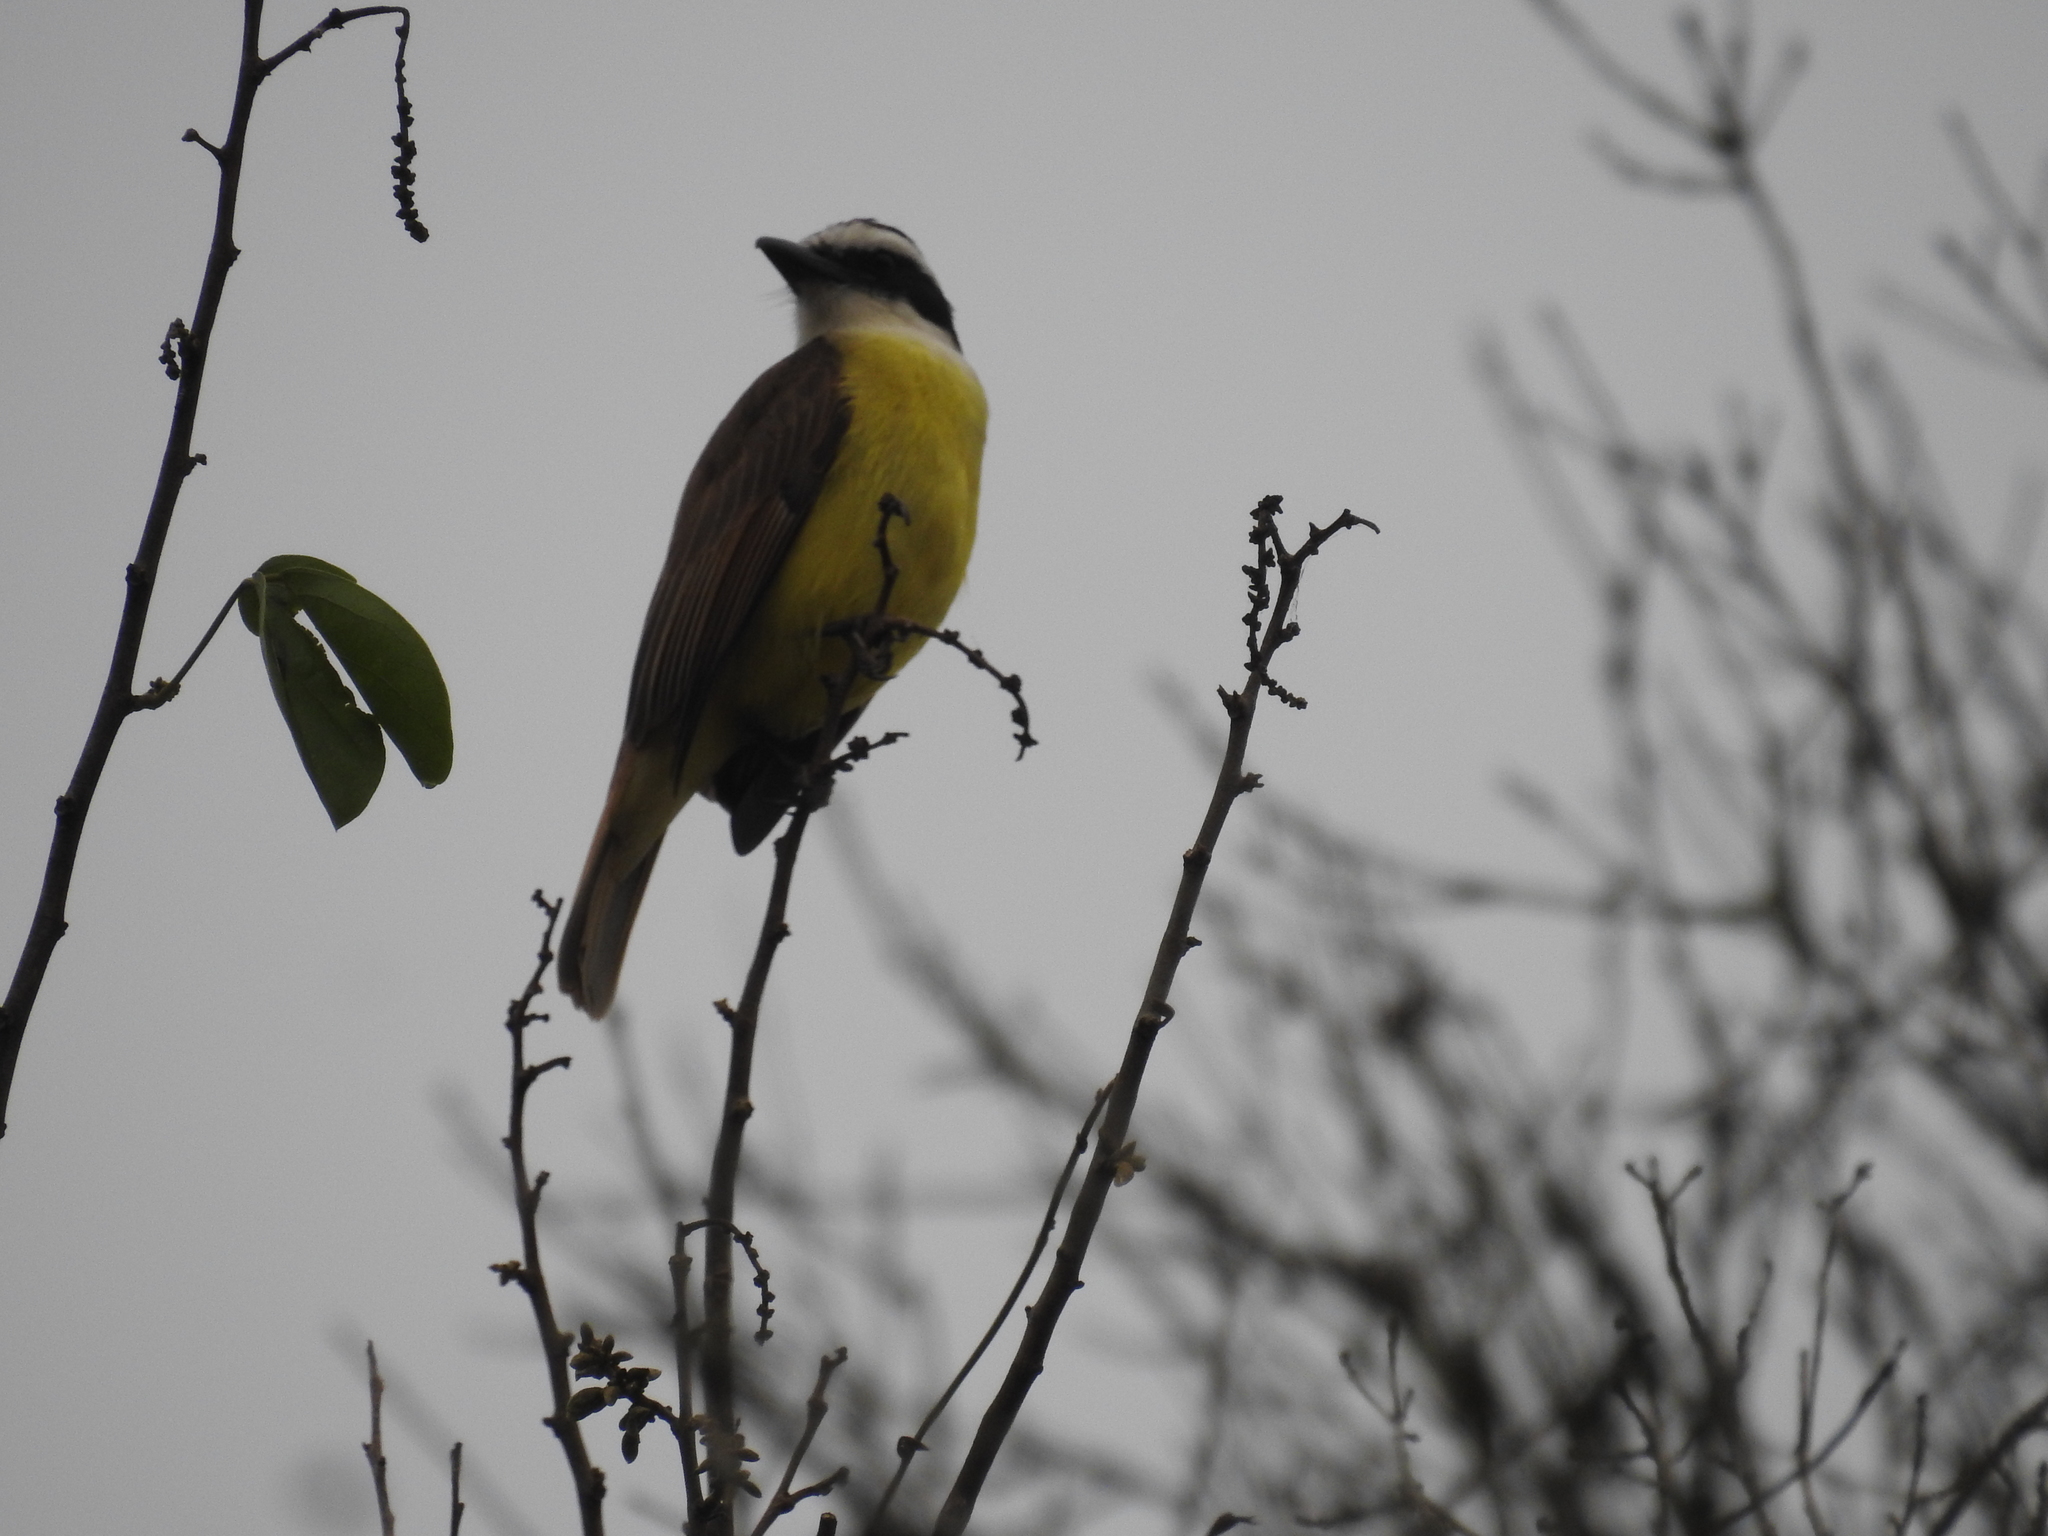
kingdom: Animalia
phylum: Chordata
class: Aves
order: Passeriformes
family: Tyrannidae
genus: Pitangus
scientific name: Pitangus sulphuratus
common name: Great kiskadee
